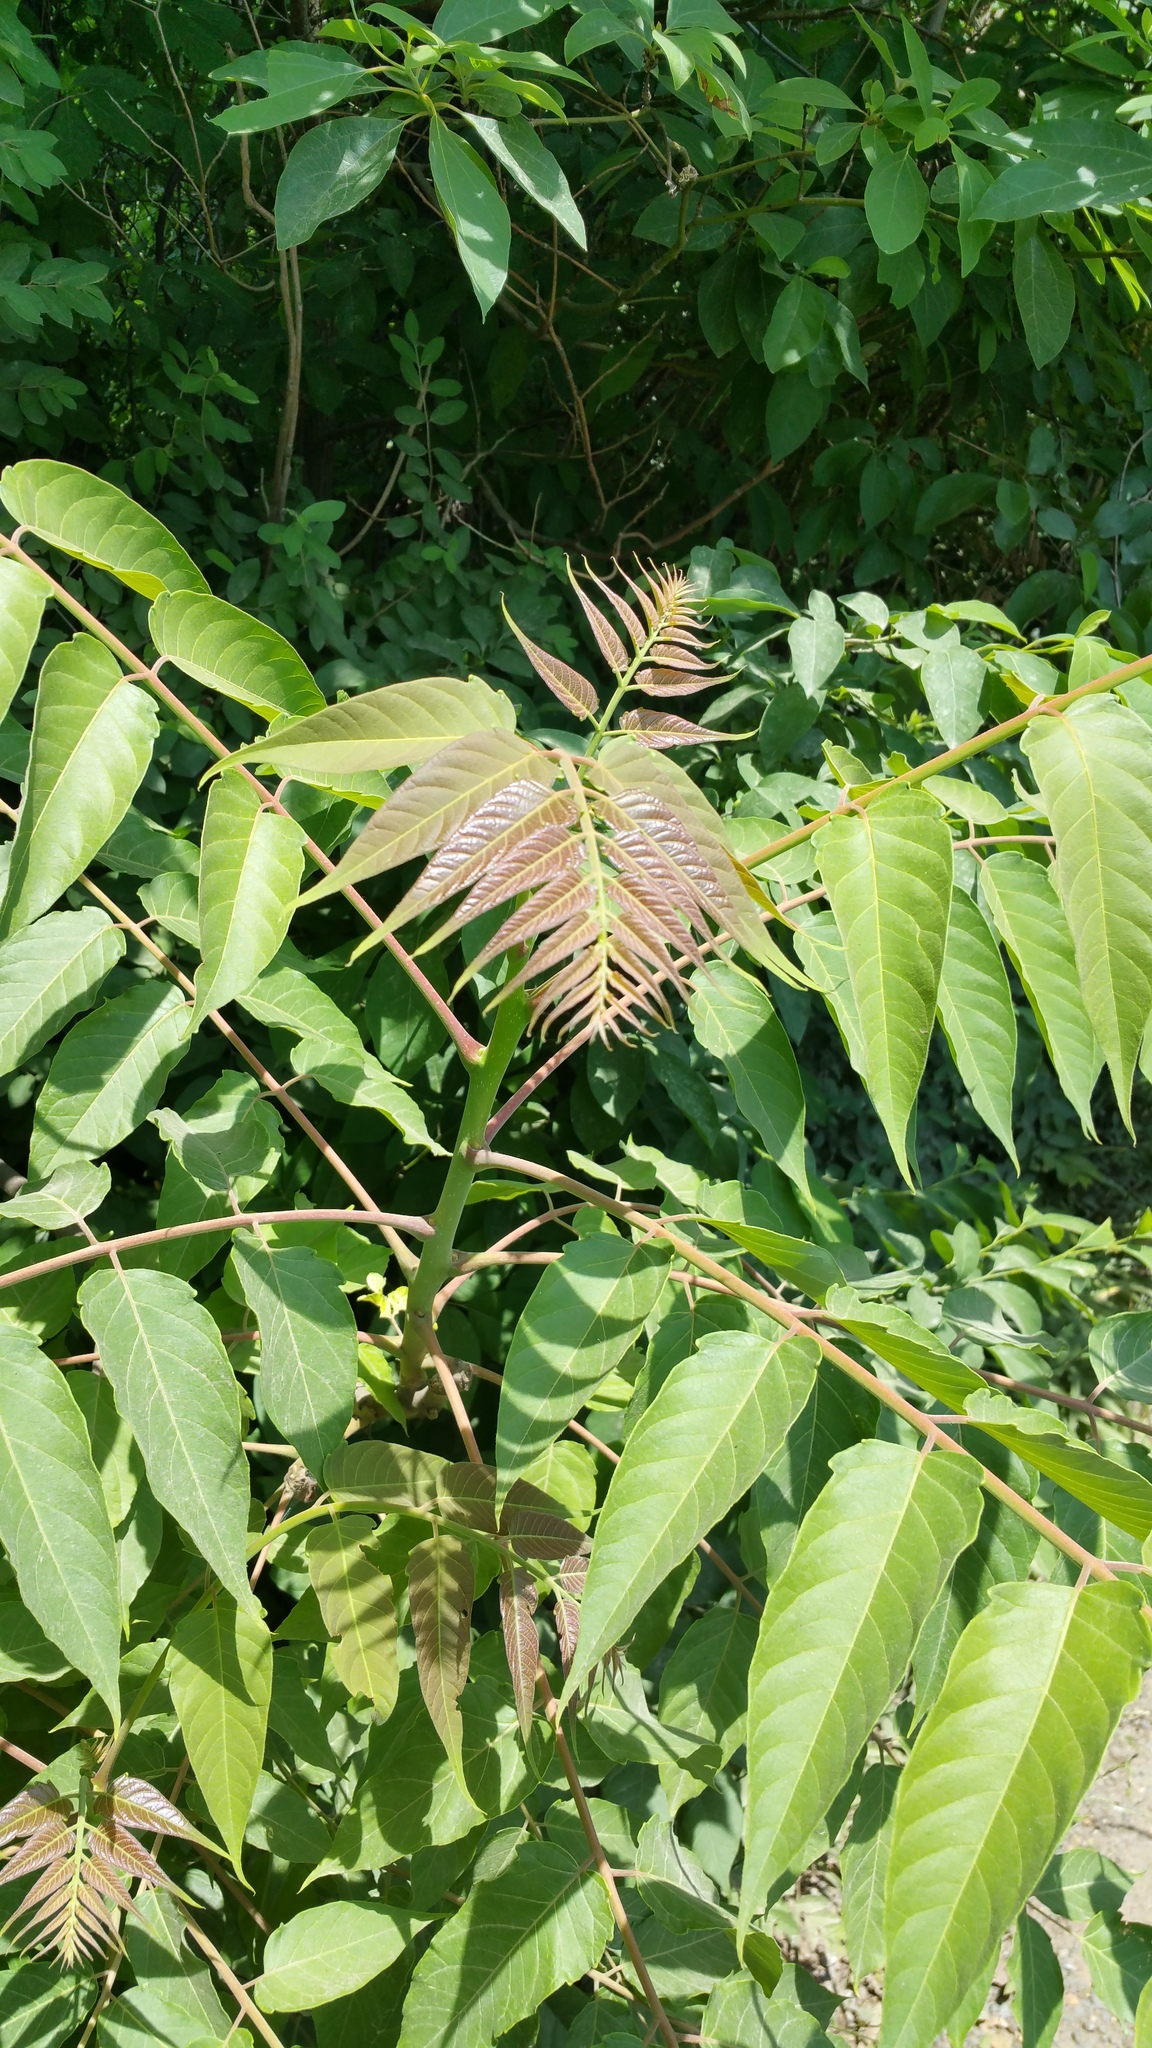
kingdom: Plantae
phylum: Tracheophyta
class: Magnoliopsida
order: Sapindales
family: Simaroubaceae
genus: Ailanthus
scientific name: Ailanthus altissima
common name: Tree-of-heaven
